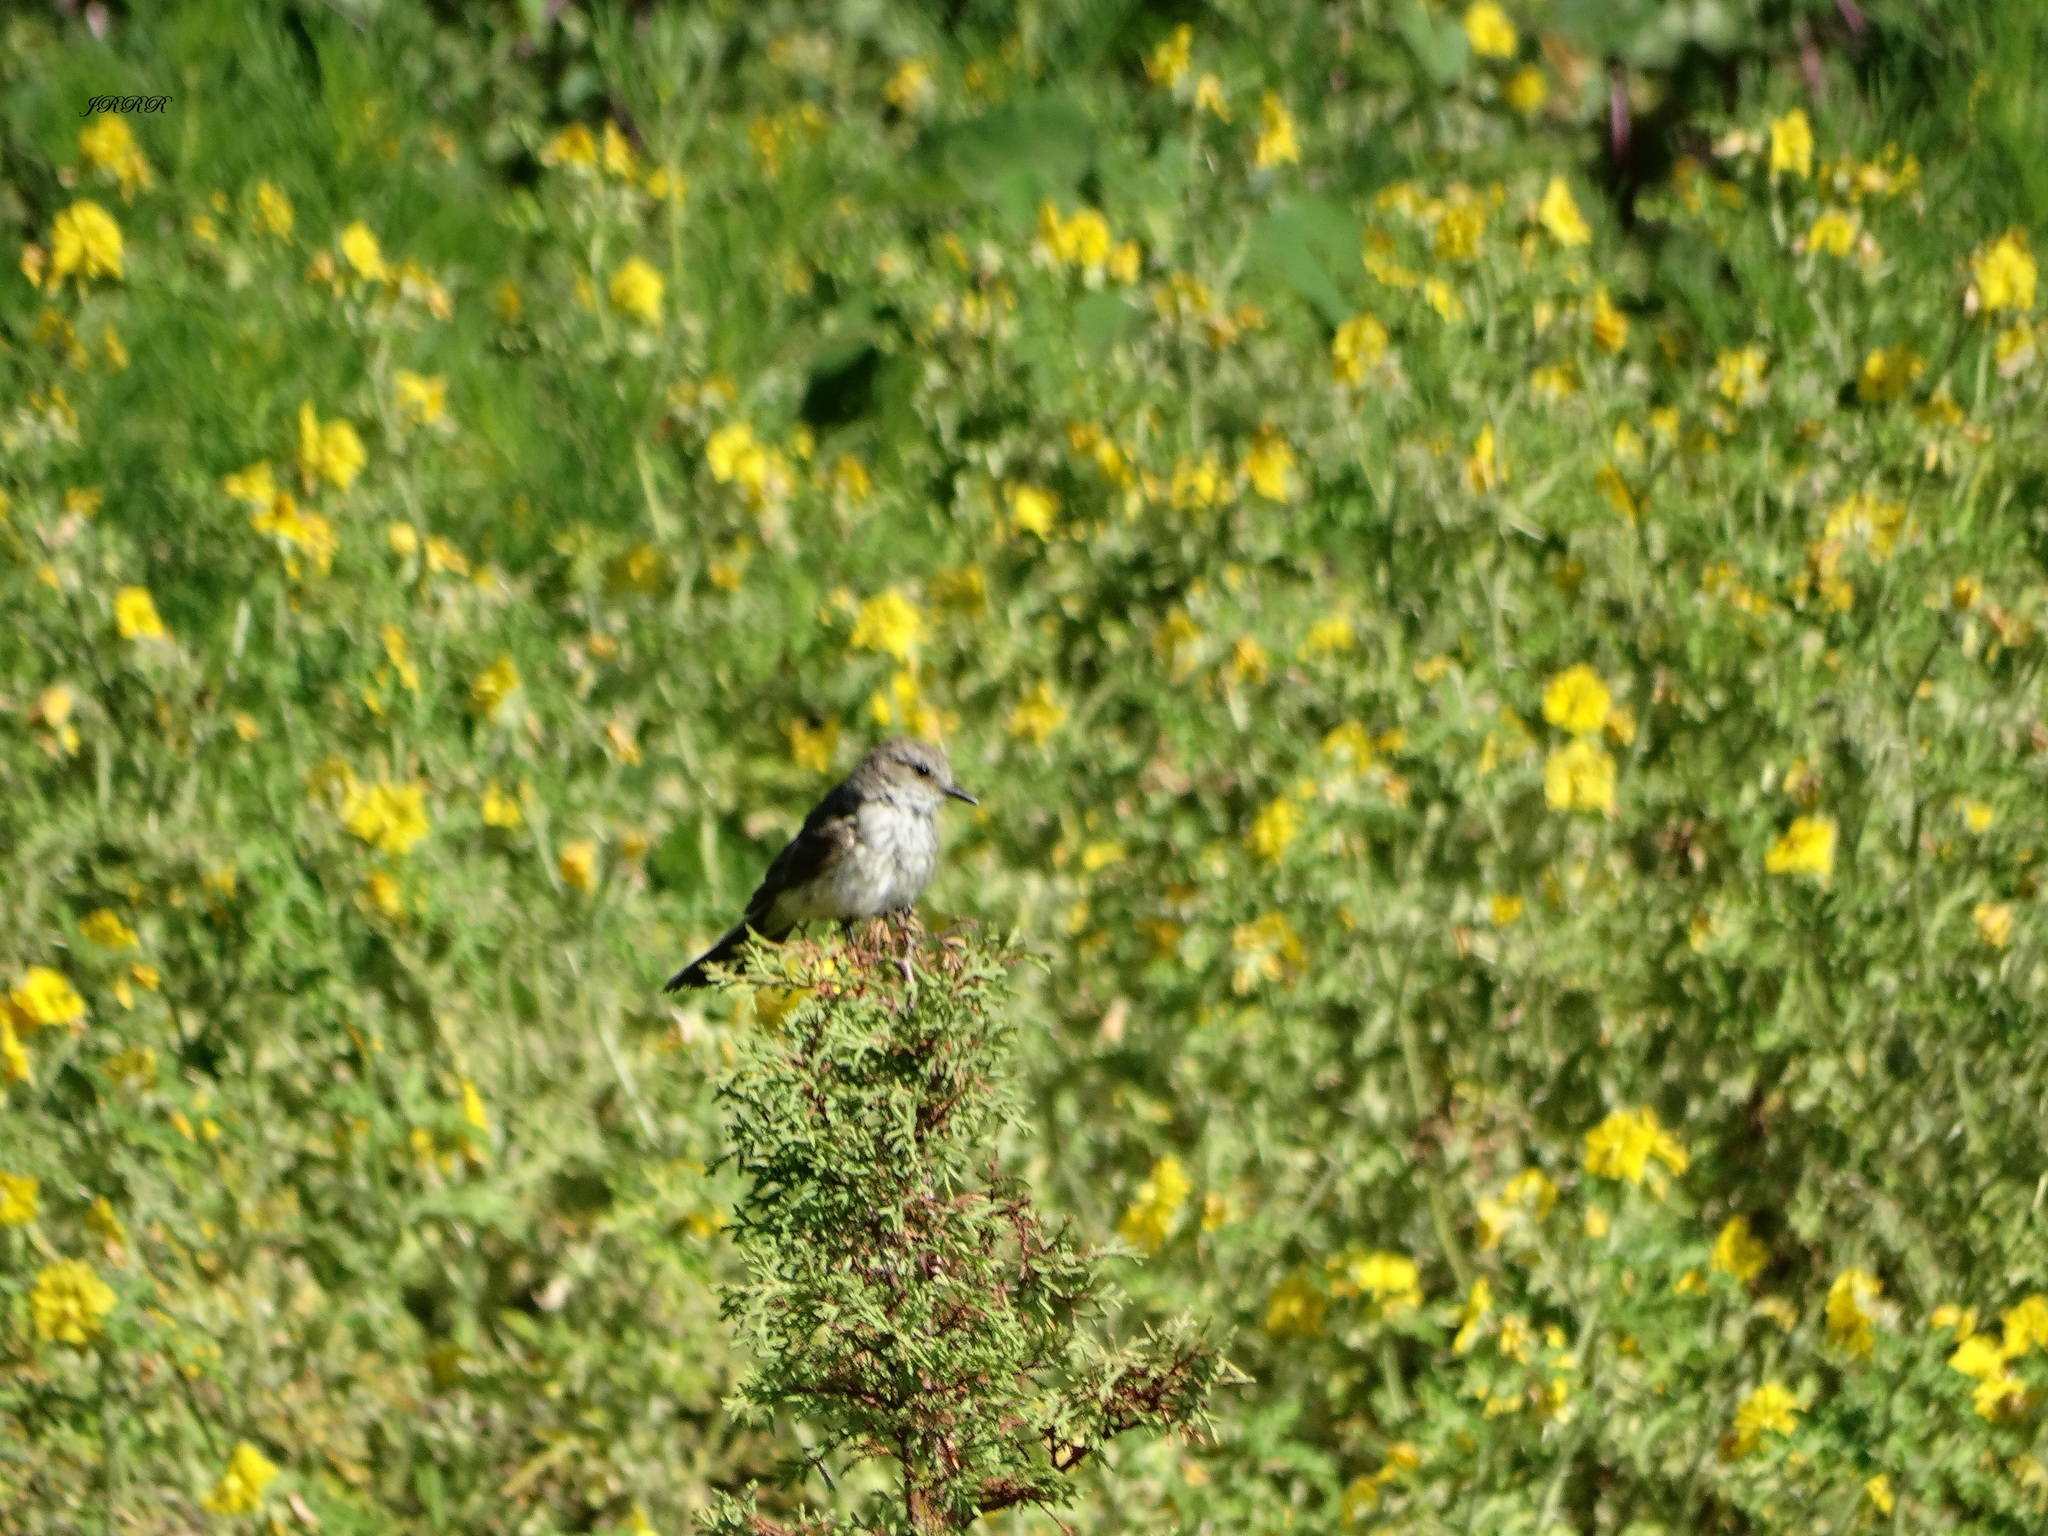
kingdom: Animalia
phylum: Chordata
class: Aves
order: Passeriformes
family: Tyrannidae
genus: Pyrocephalus
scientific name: Pyrocephalus rubinus
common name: Vermilion flycatcher
